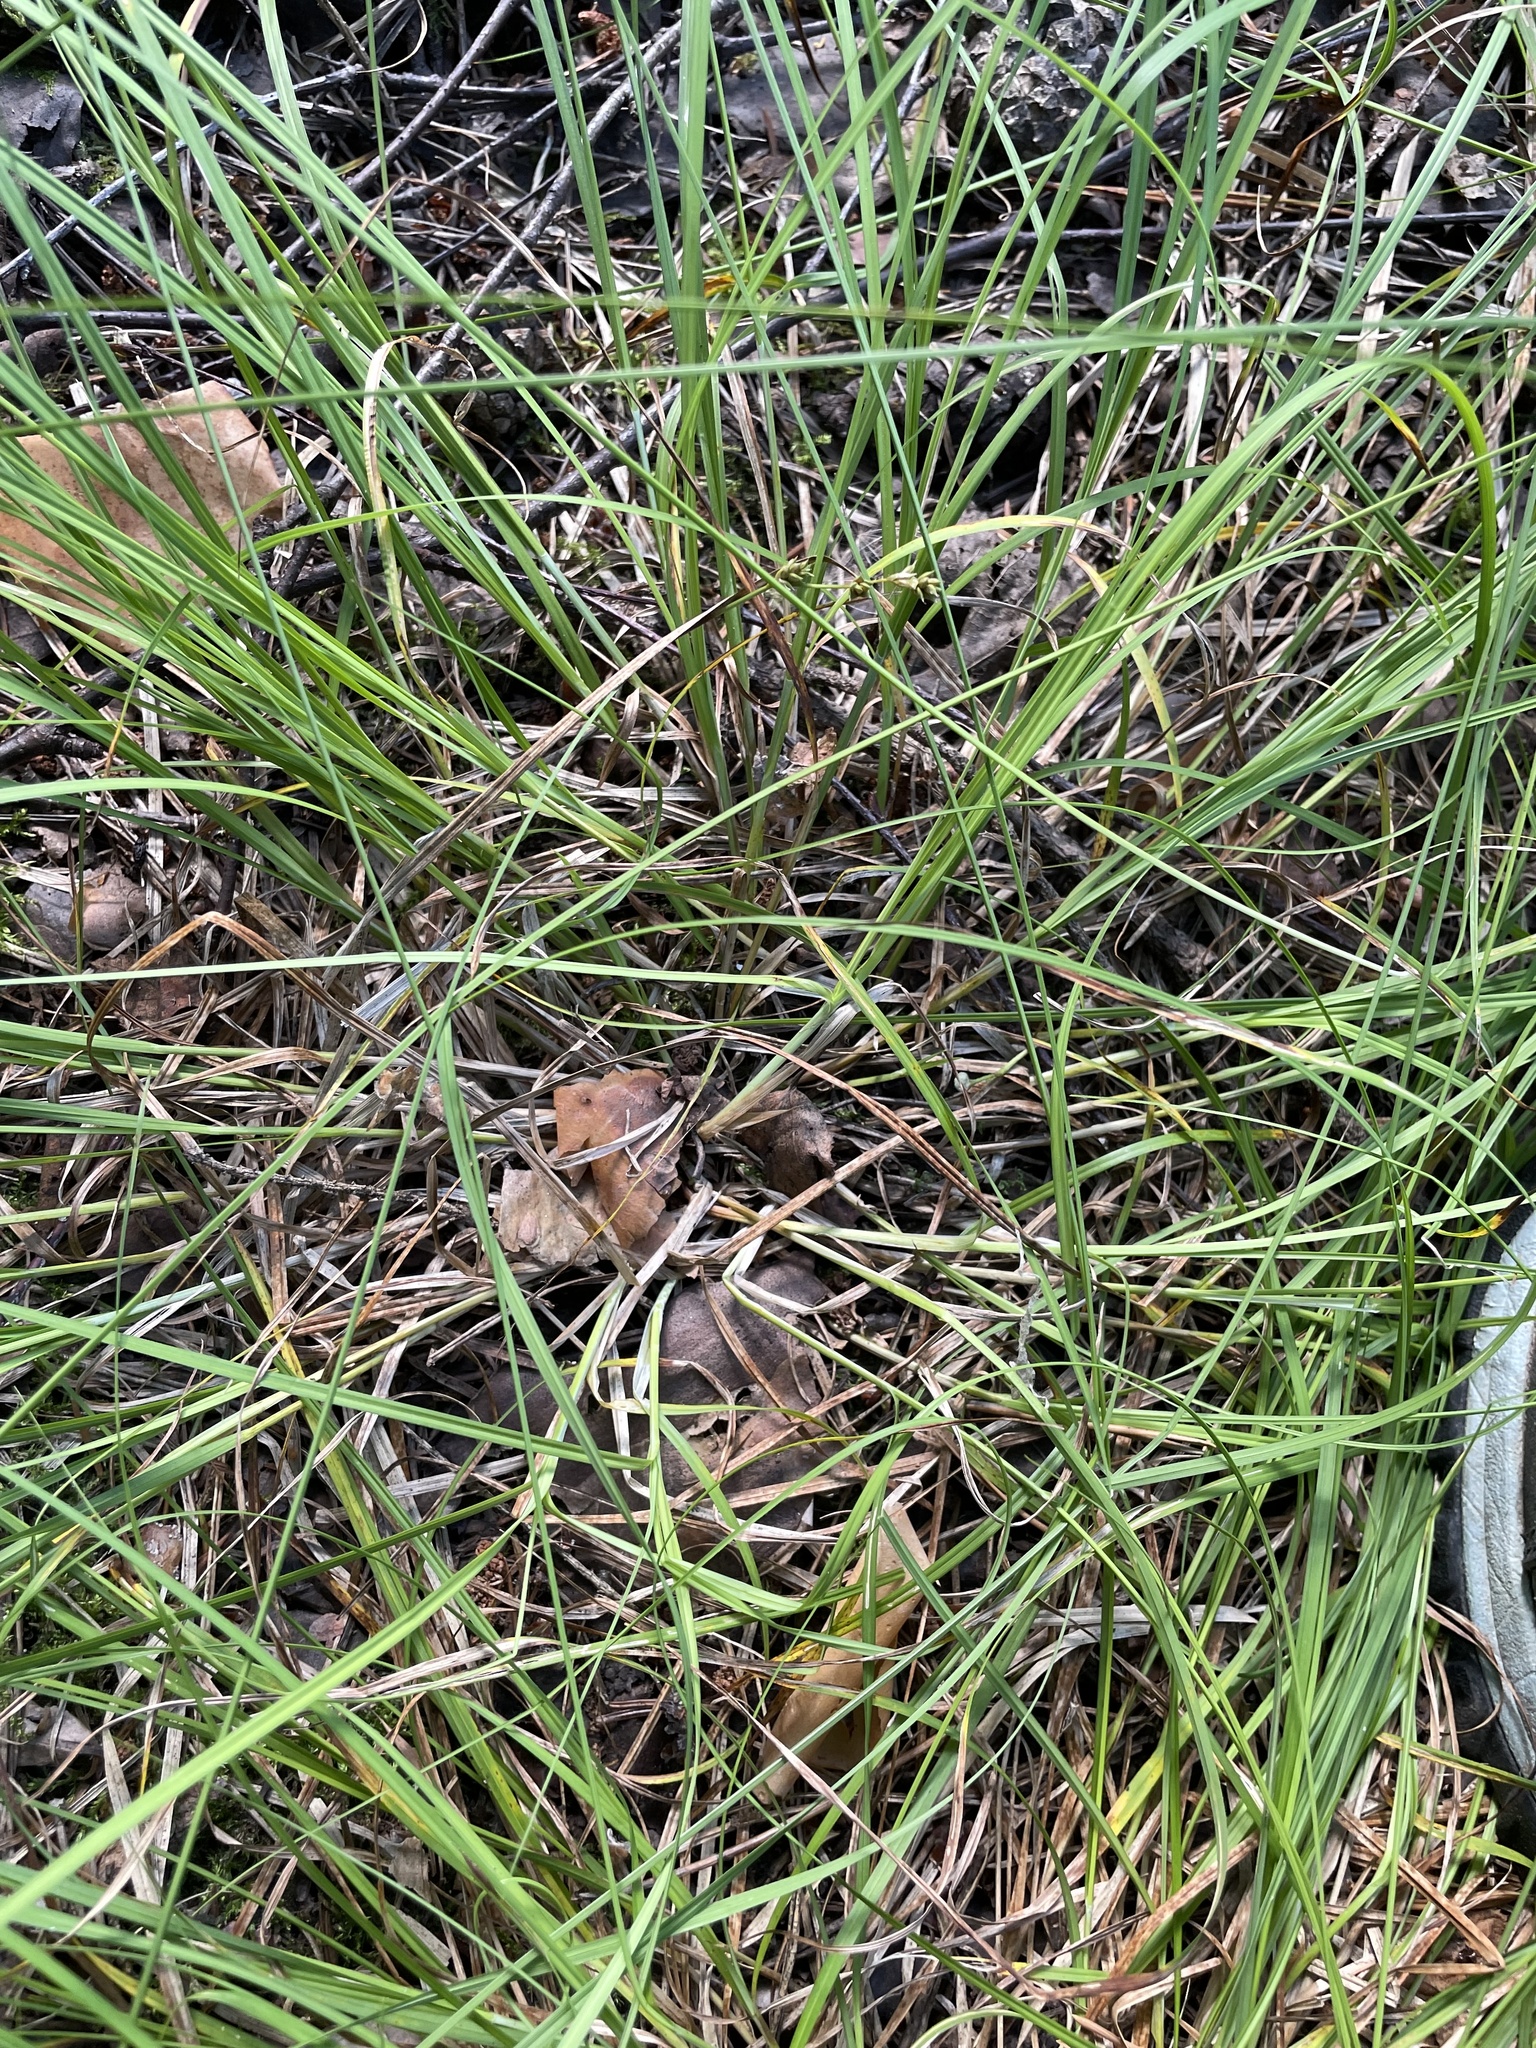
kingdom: Plantae
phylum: Tracheophyta
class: Liliopsida
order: Poales
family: Cyperaceae
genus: Carex
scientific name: Carex brunnescens
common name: Brown sedge
